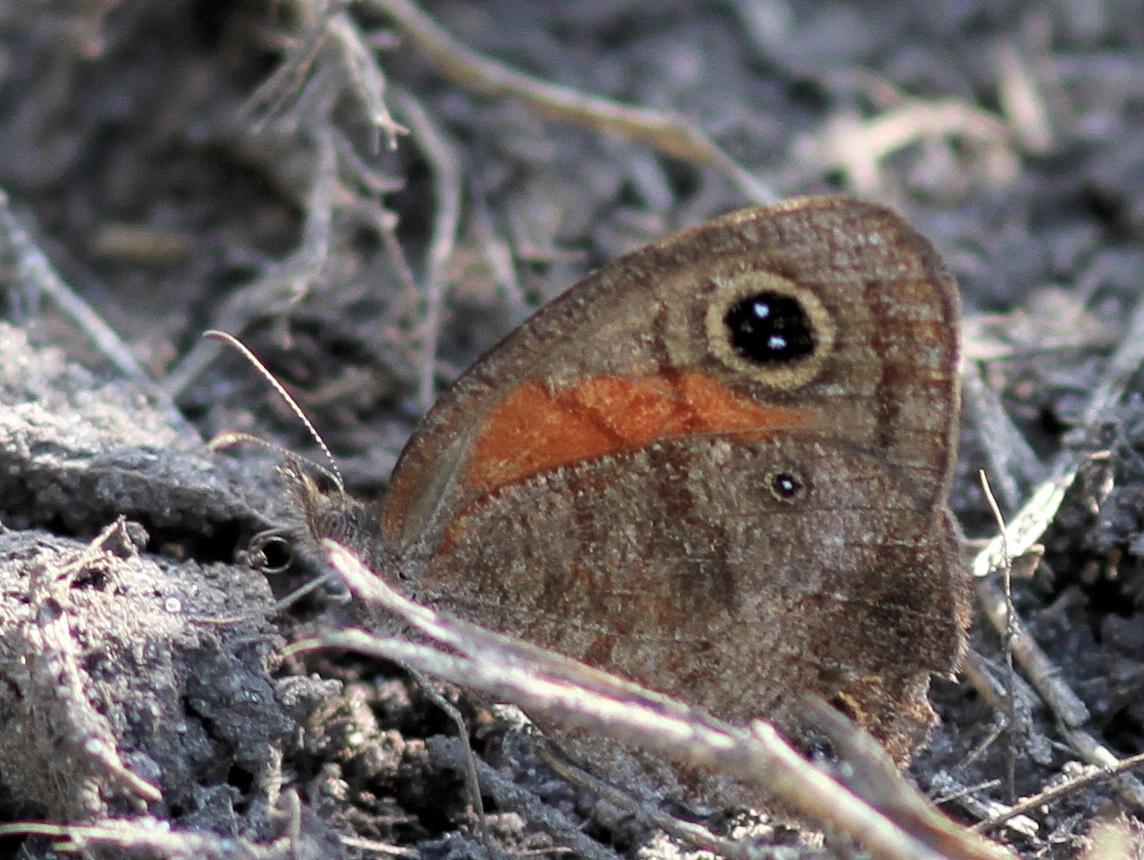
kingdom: Animalia
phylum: Arthropoda
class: Insecta
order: Lepidoptera
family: Nymphalidae
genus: Cassionympha
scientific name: Cassionympha cassius
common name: Rainforest brown
